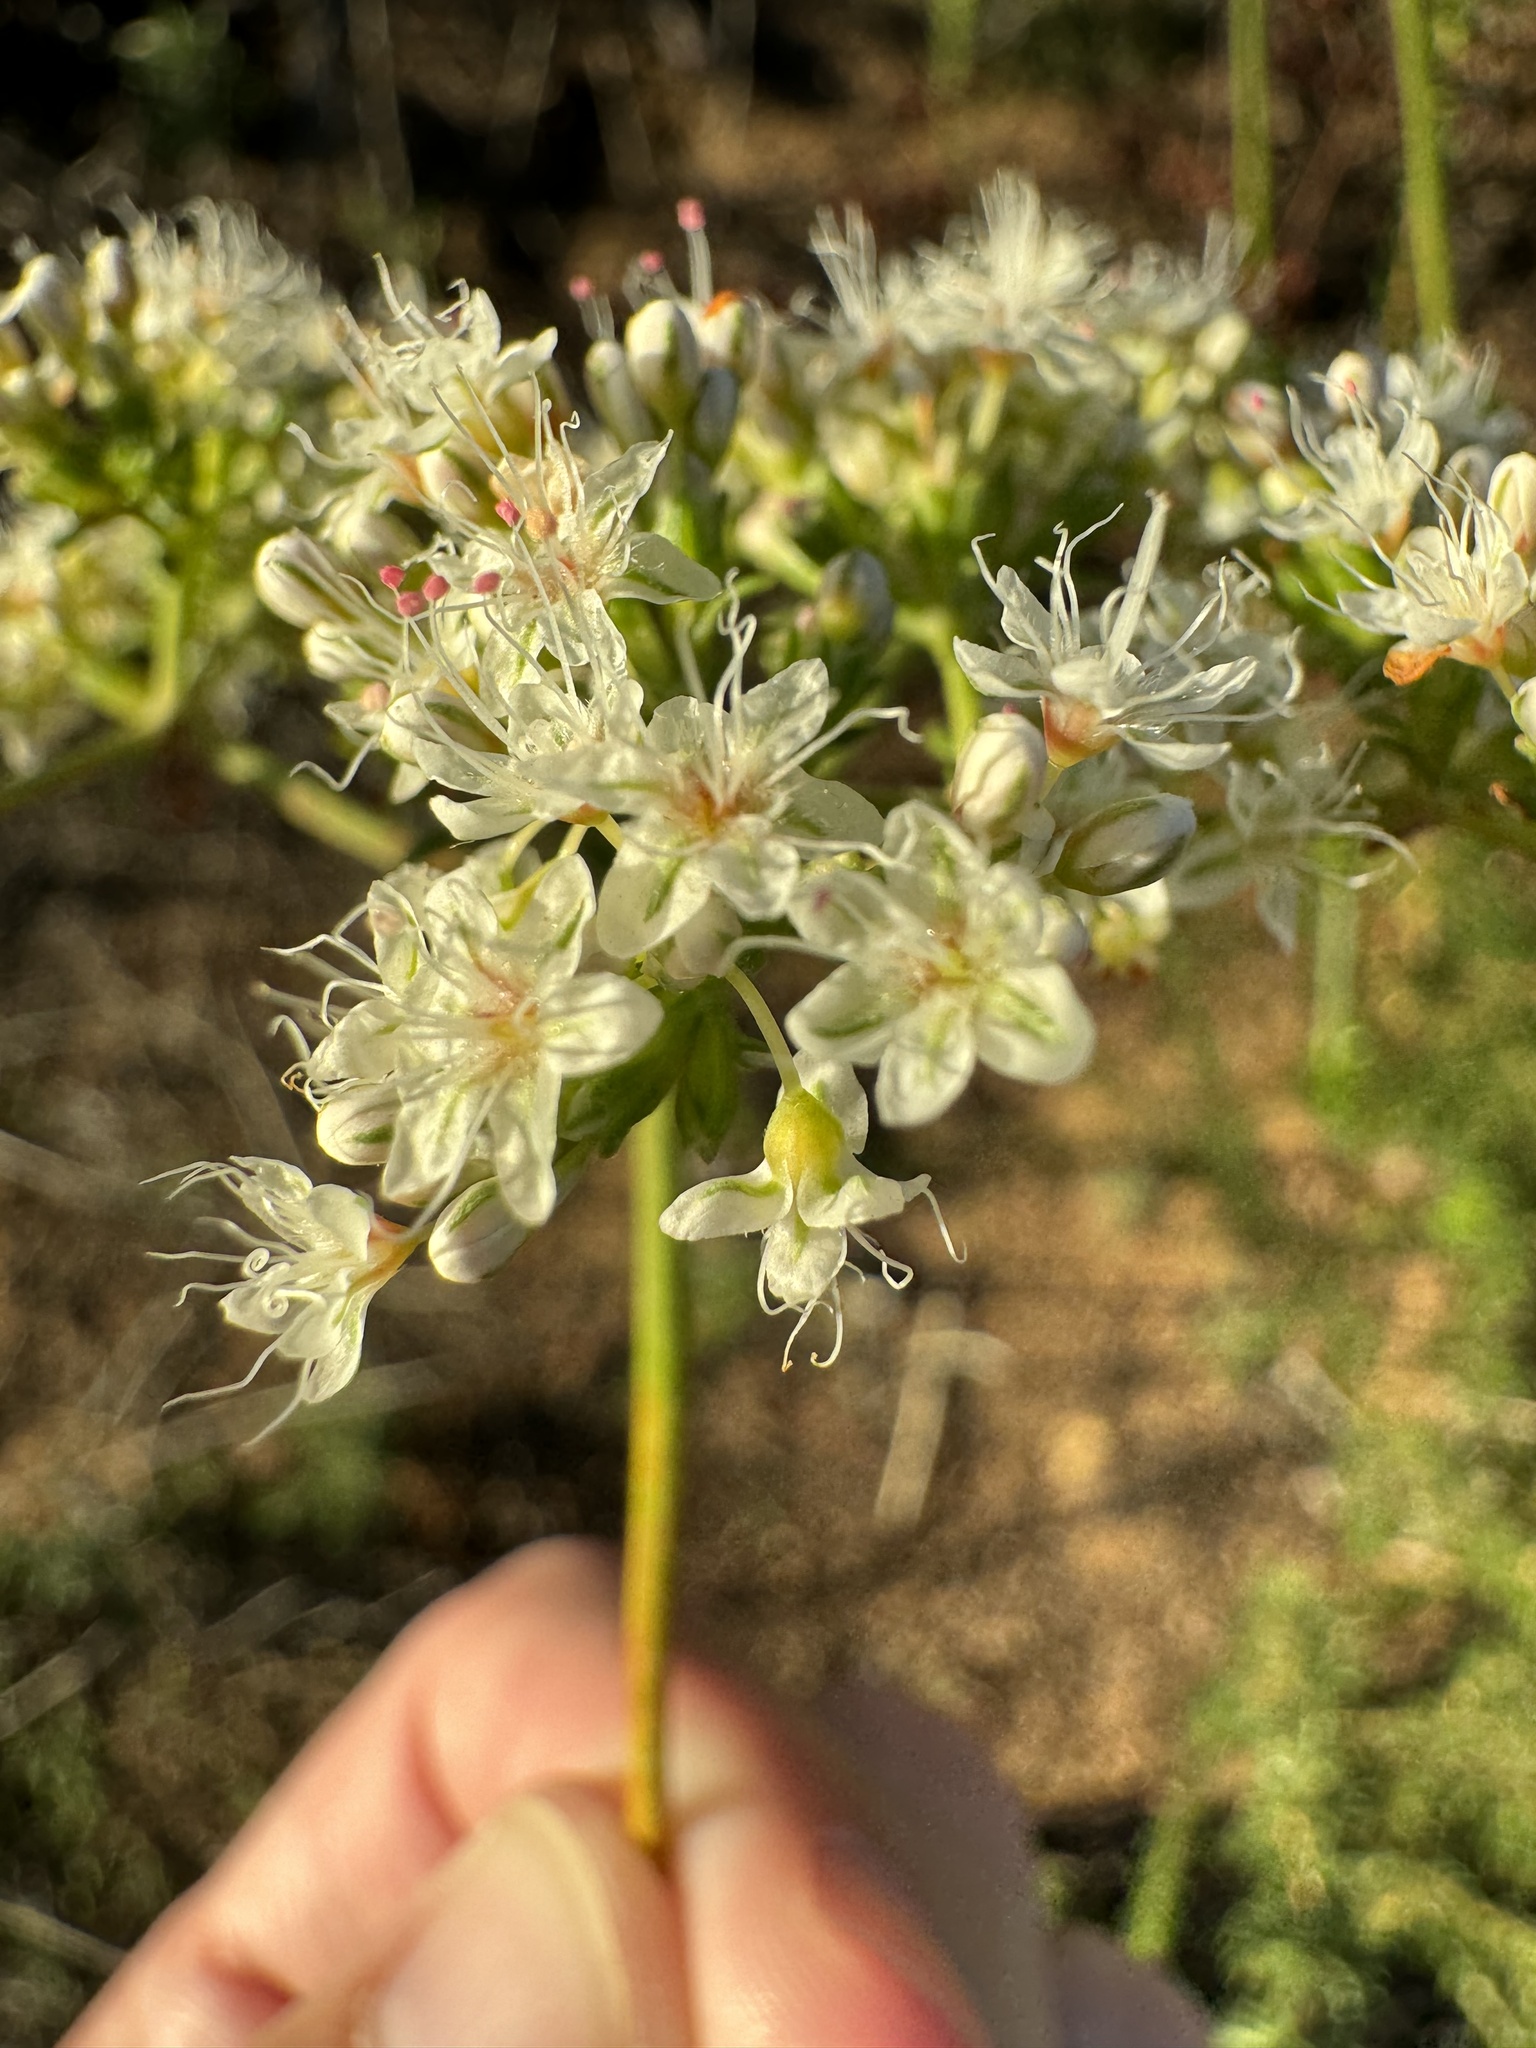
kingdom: Plantae
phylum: Tracheophyta
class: Magnoliopsida
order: Caryophyllales
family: Polygonaceae
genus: Eriogonum
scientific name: Eriogonum fasciculatum
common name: California wild buckwheat
